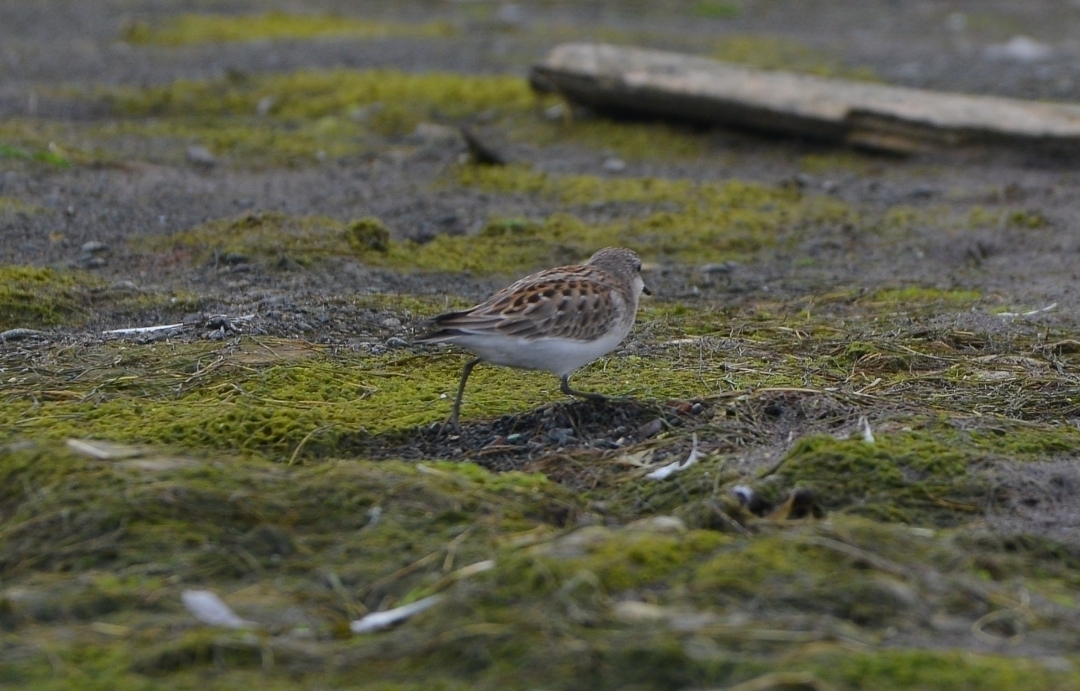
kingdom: Animalia
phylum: Chordata
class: Aves
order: Charadriiformes
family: Scolopacidae
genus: Calidris
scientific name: Calidris ruficollis
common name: Red-necked stint
